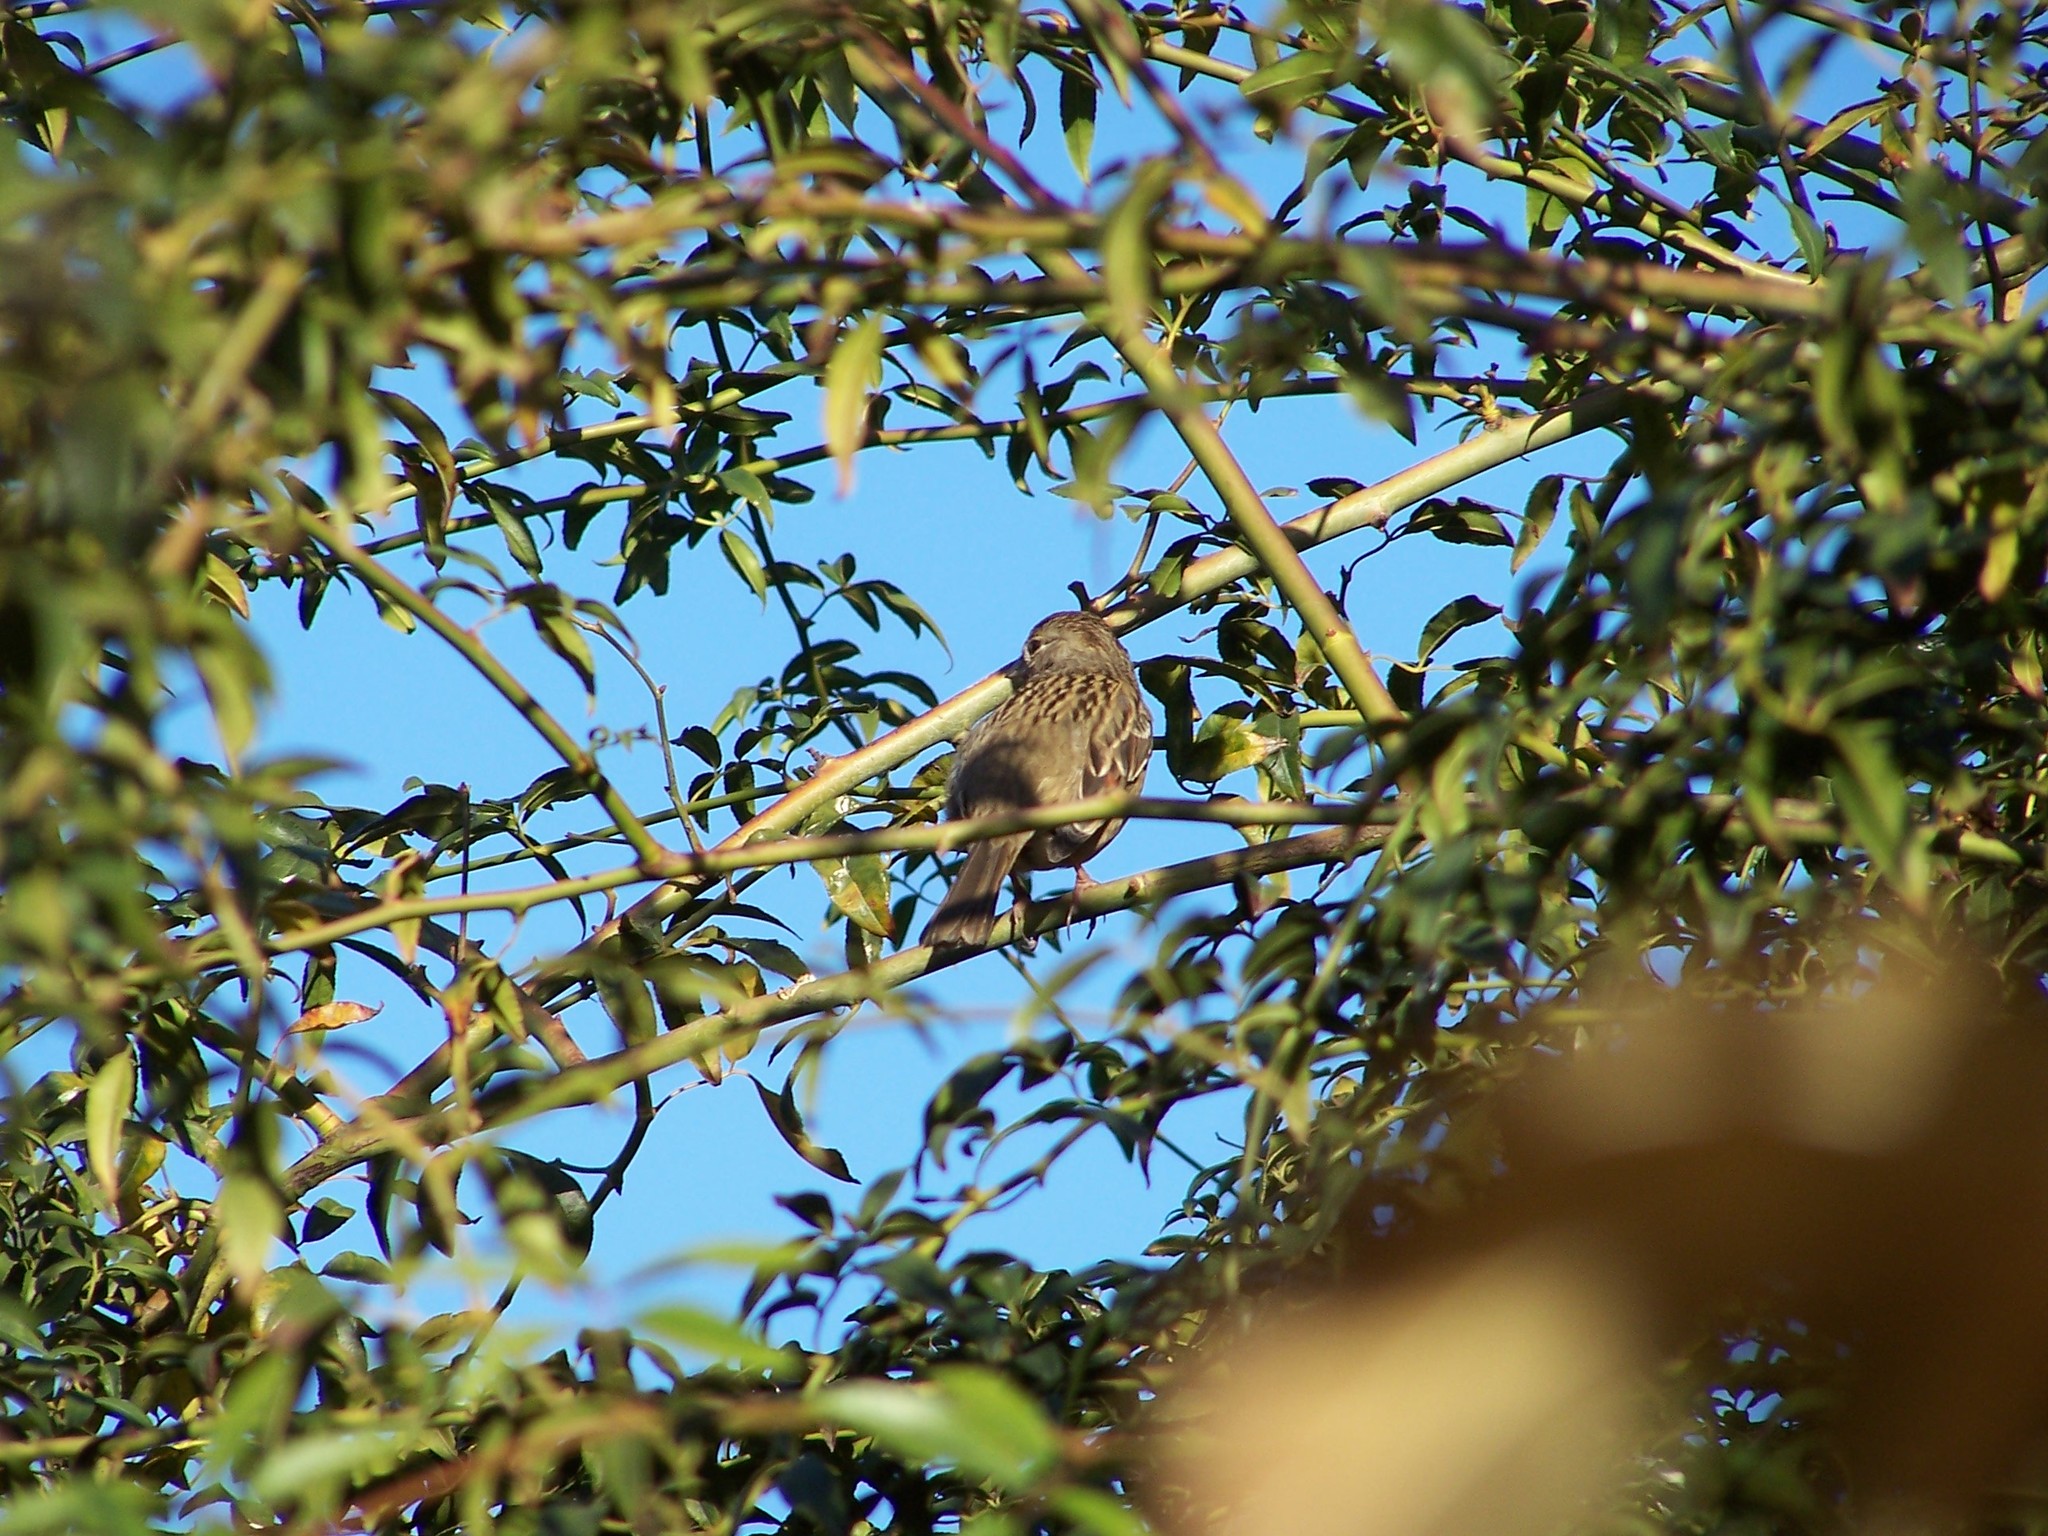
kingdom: Animalia
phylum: Chordata
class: Aves
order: Passeriformes
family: Passerellidae
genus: Zonotrichia
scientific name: Zonotrichia atricapilla
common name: Golden-crowned sparrow
